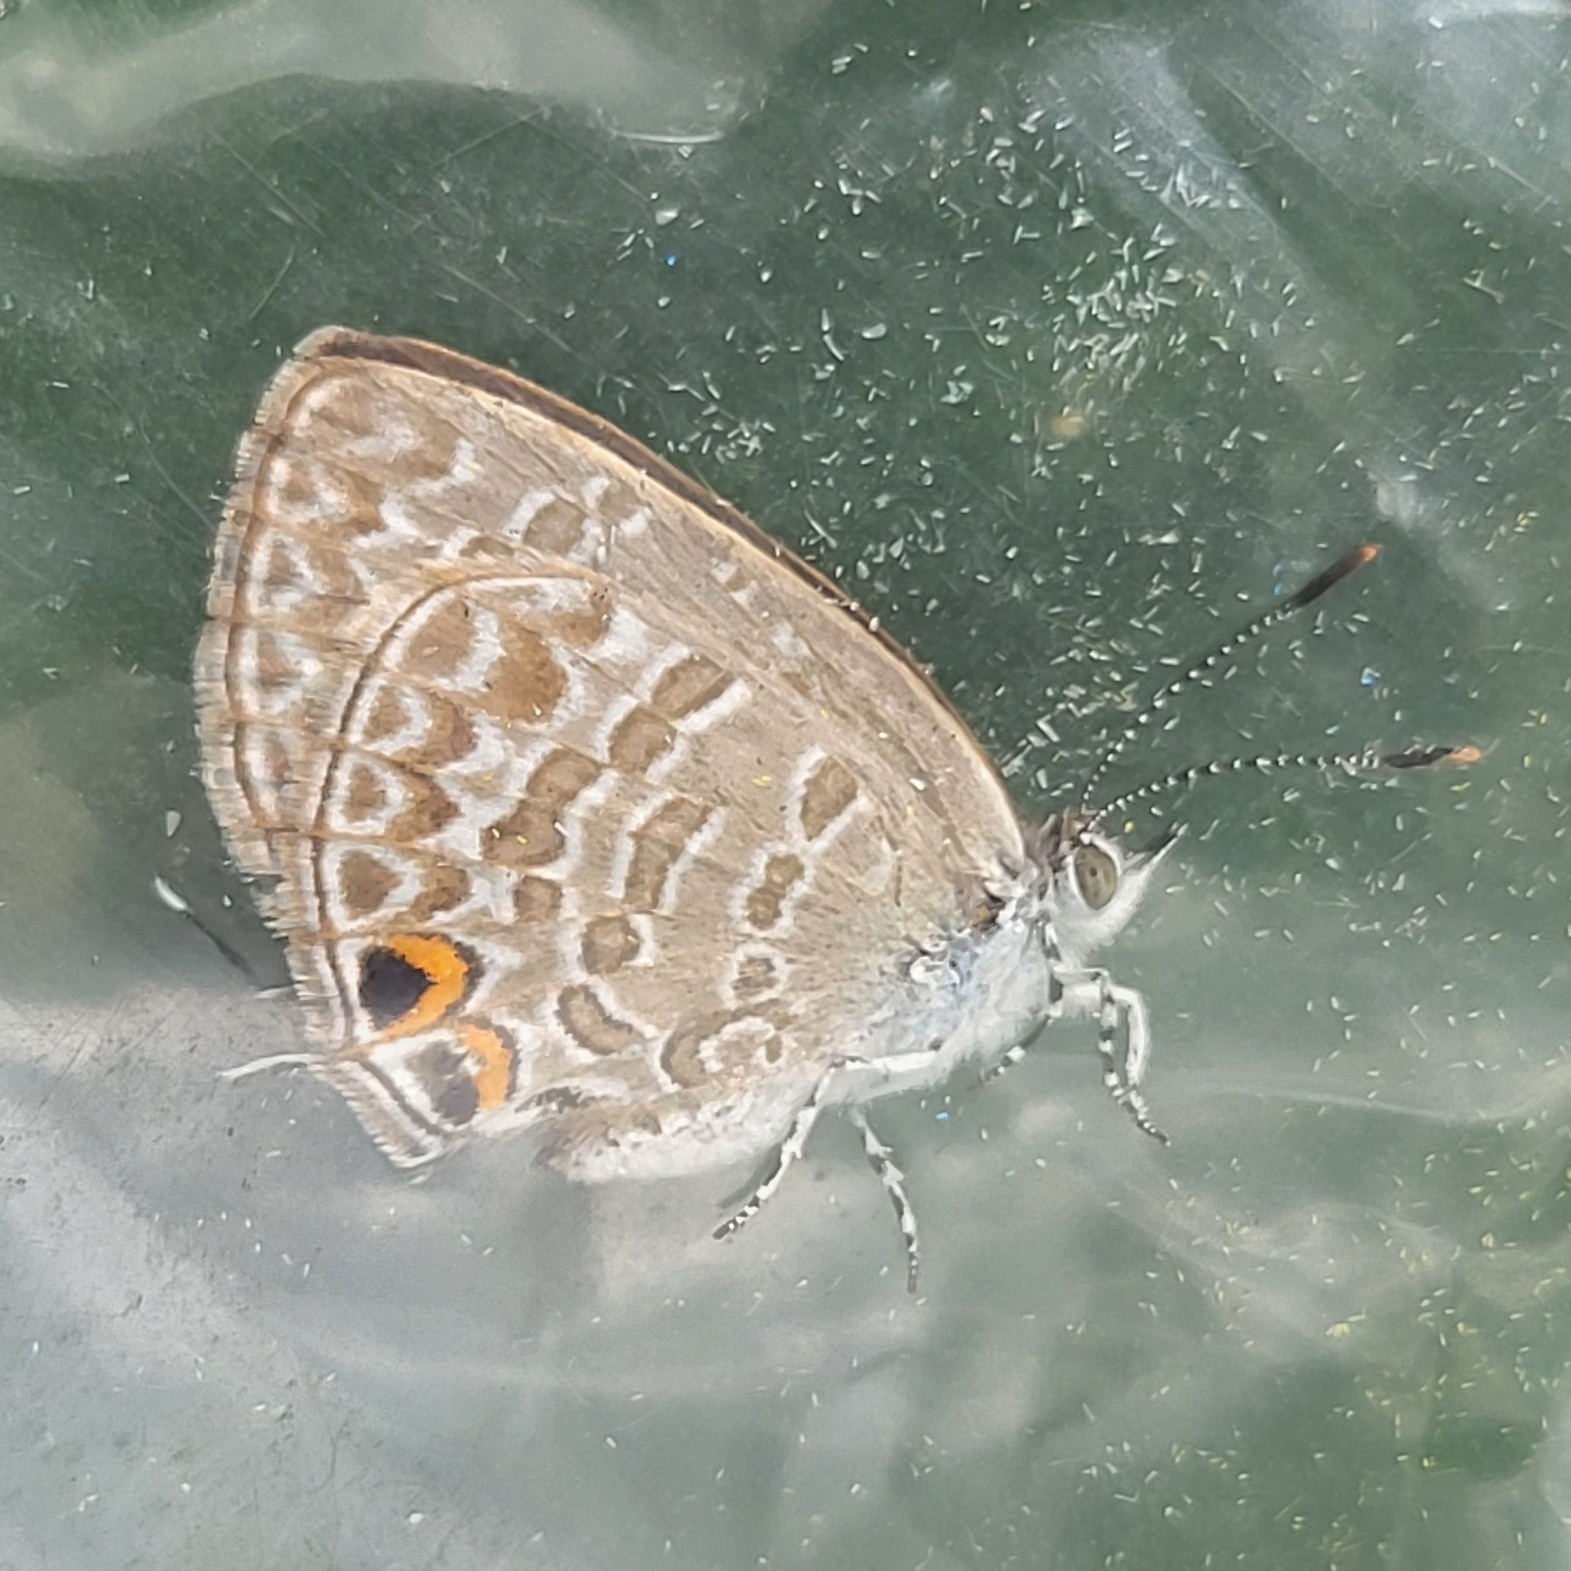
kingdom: Animalia
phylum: Arthropoda
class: Insecta
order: Lepidoptera
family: Lycaenidae
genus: Catopyrops
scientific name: Catopyrops ancyra
